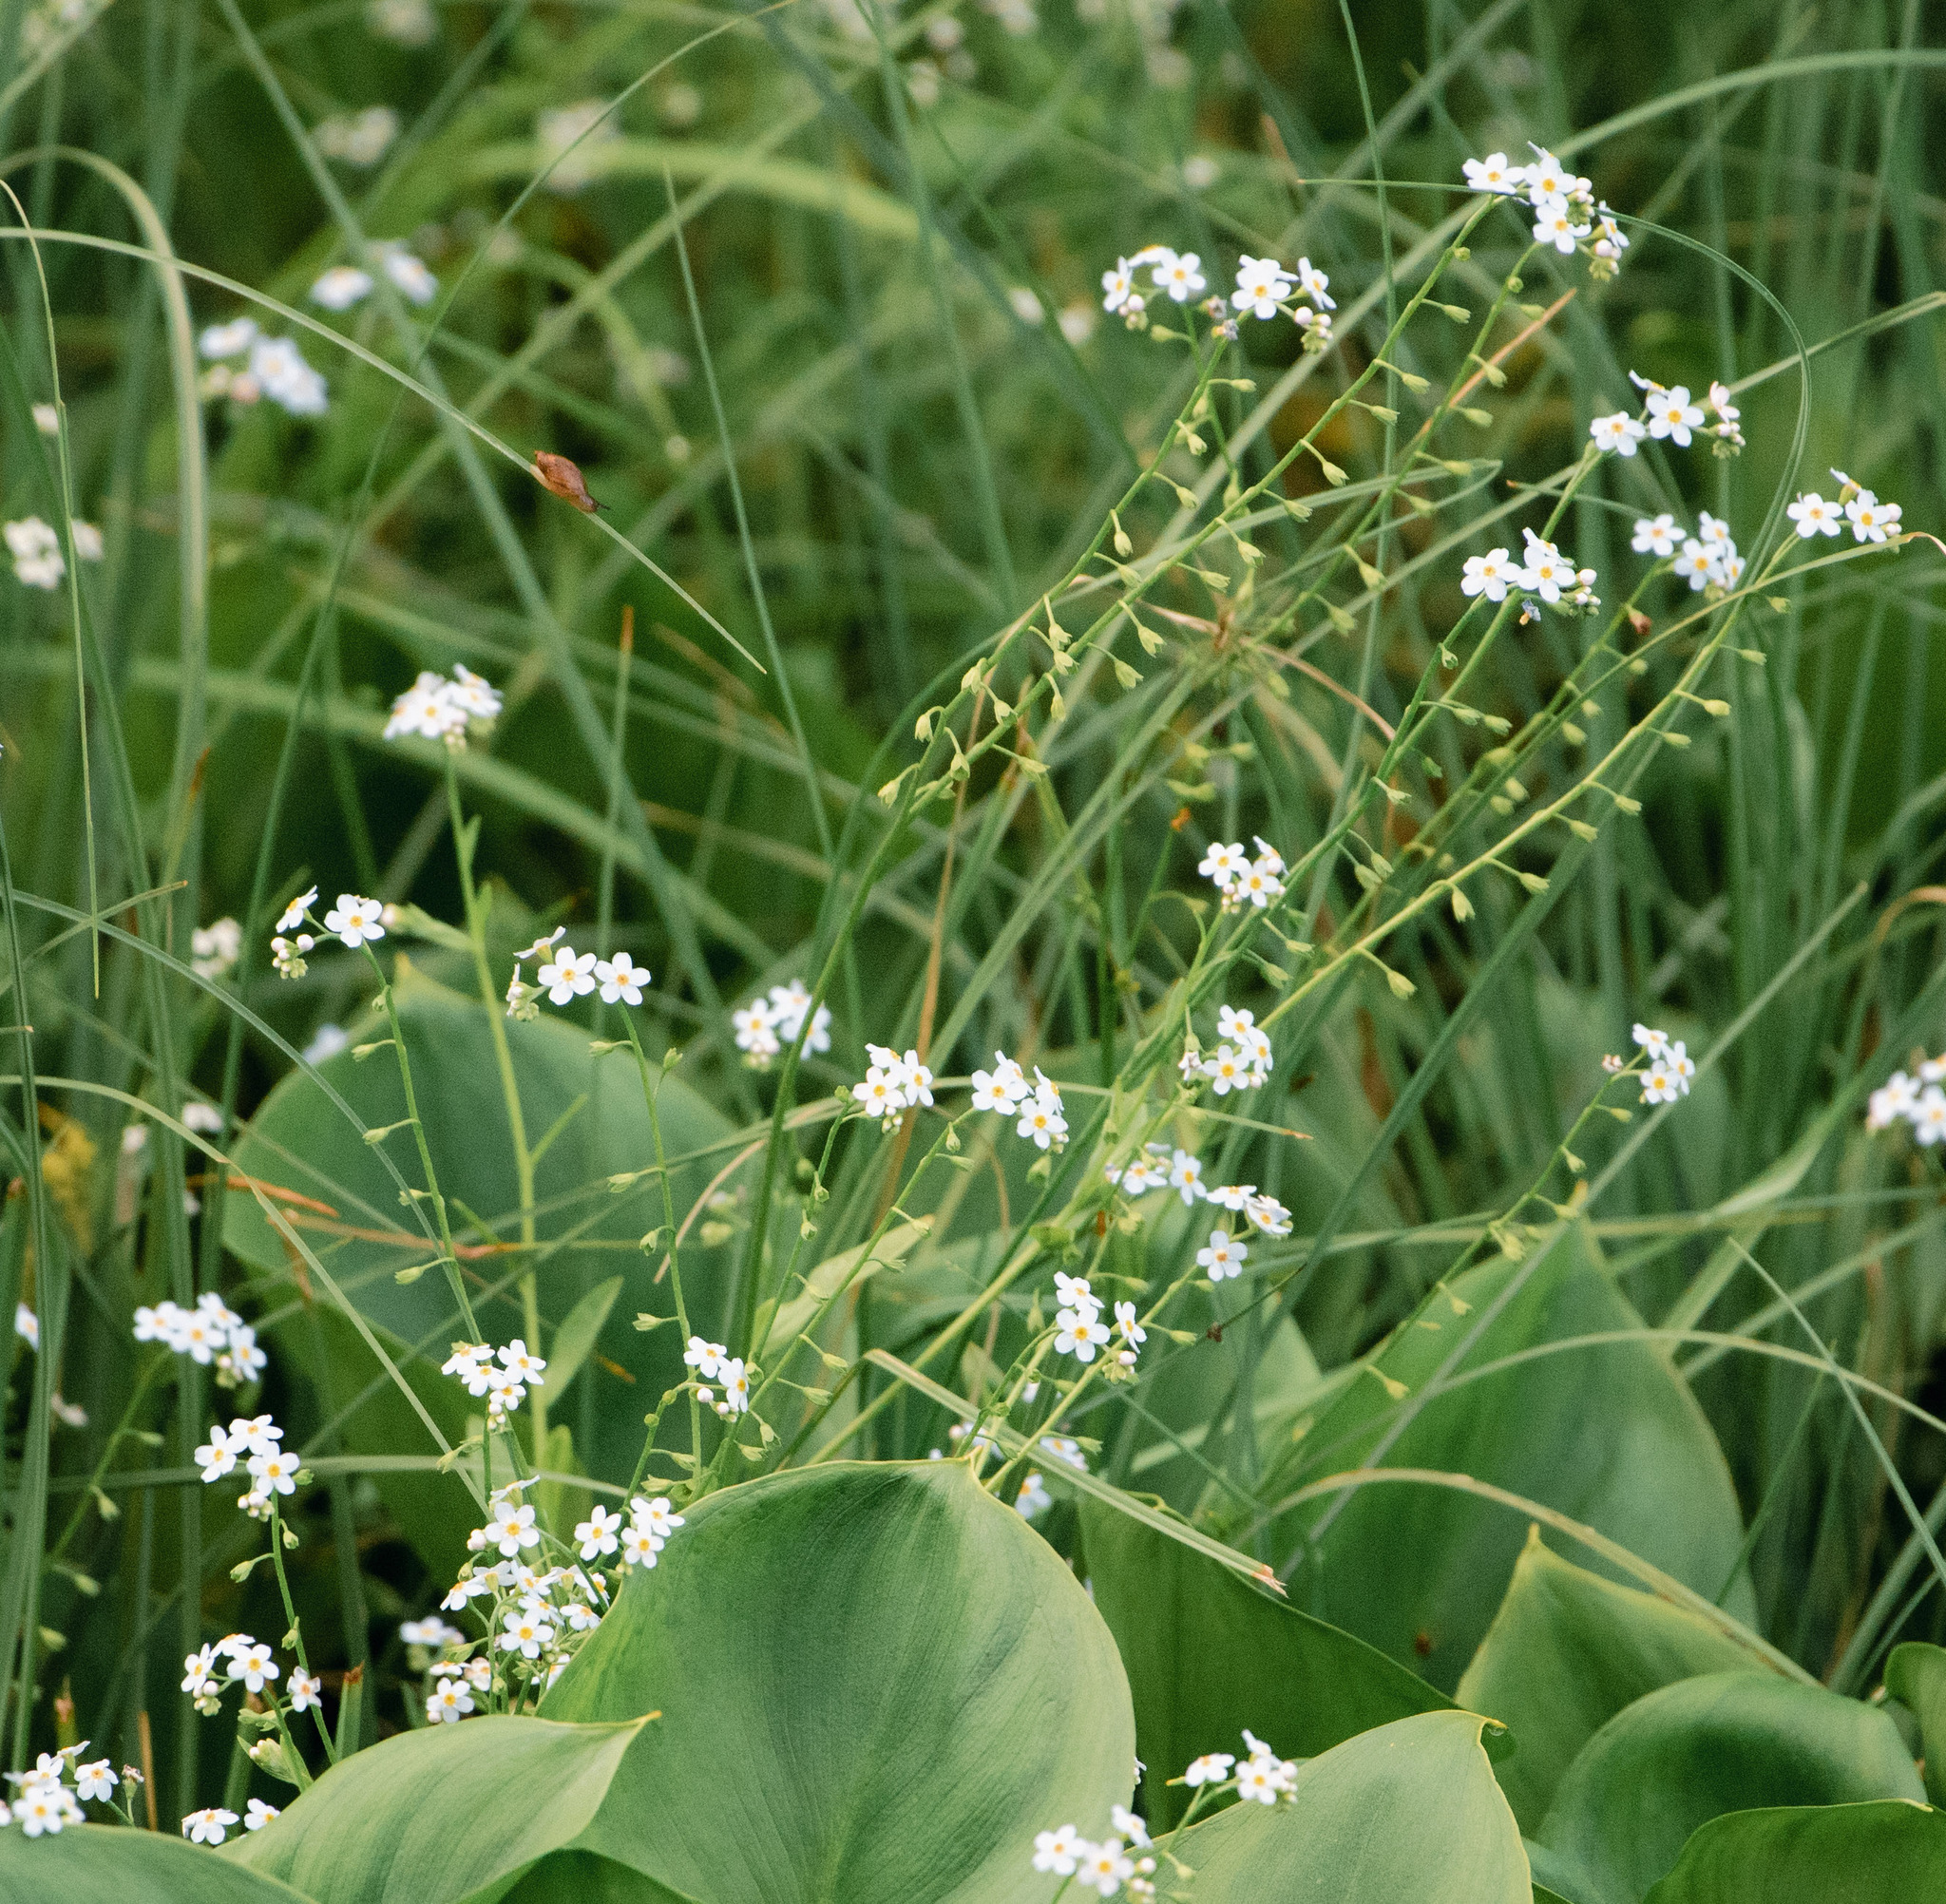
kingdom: Plantae
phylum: Tracheophyta
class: Magnoliopsida
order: Boraginales
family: Boraginaceae
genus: Myosotis
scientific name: Myosotis scorpioides
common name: Water forget-me-not
